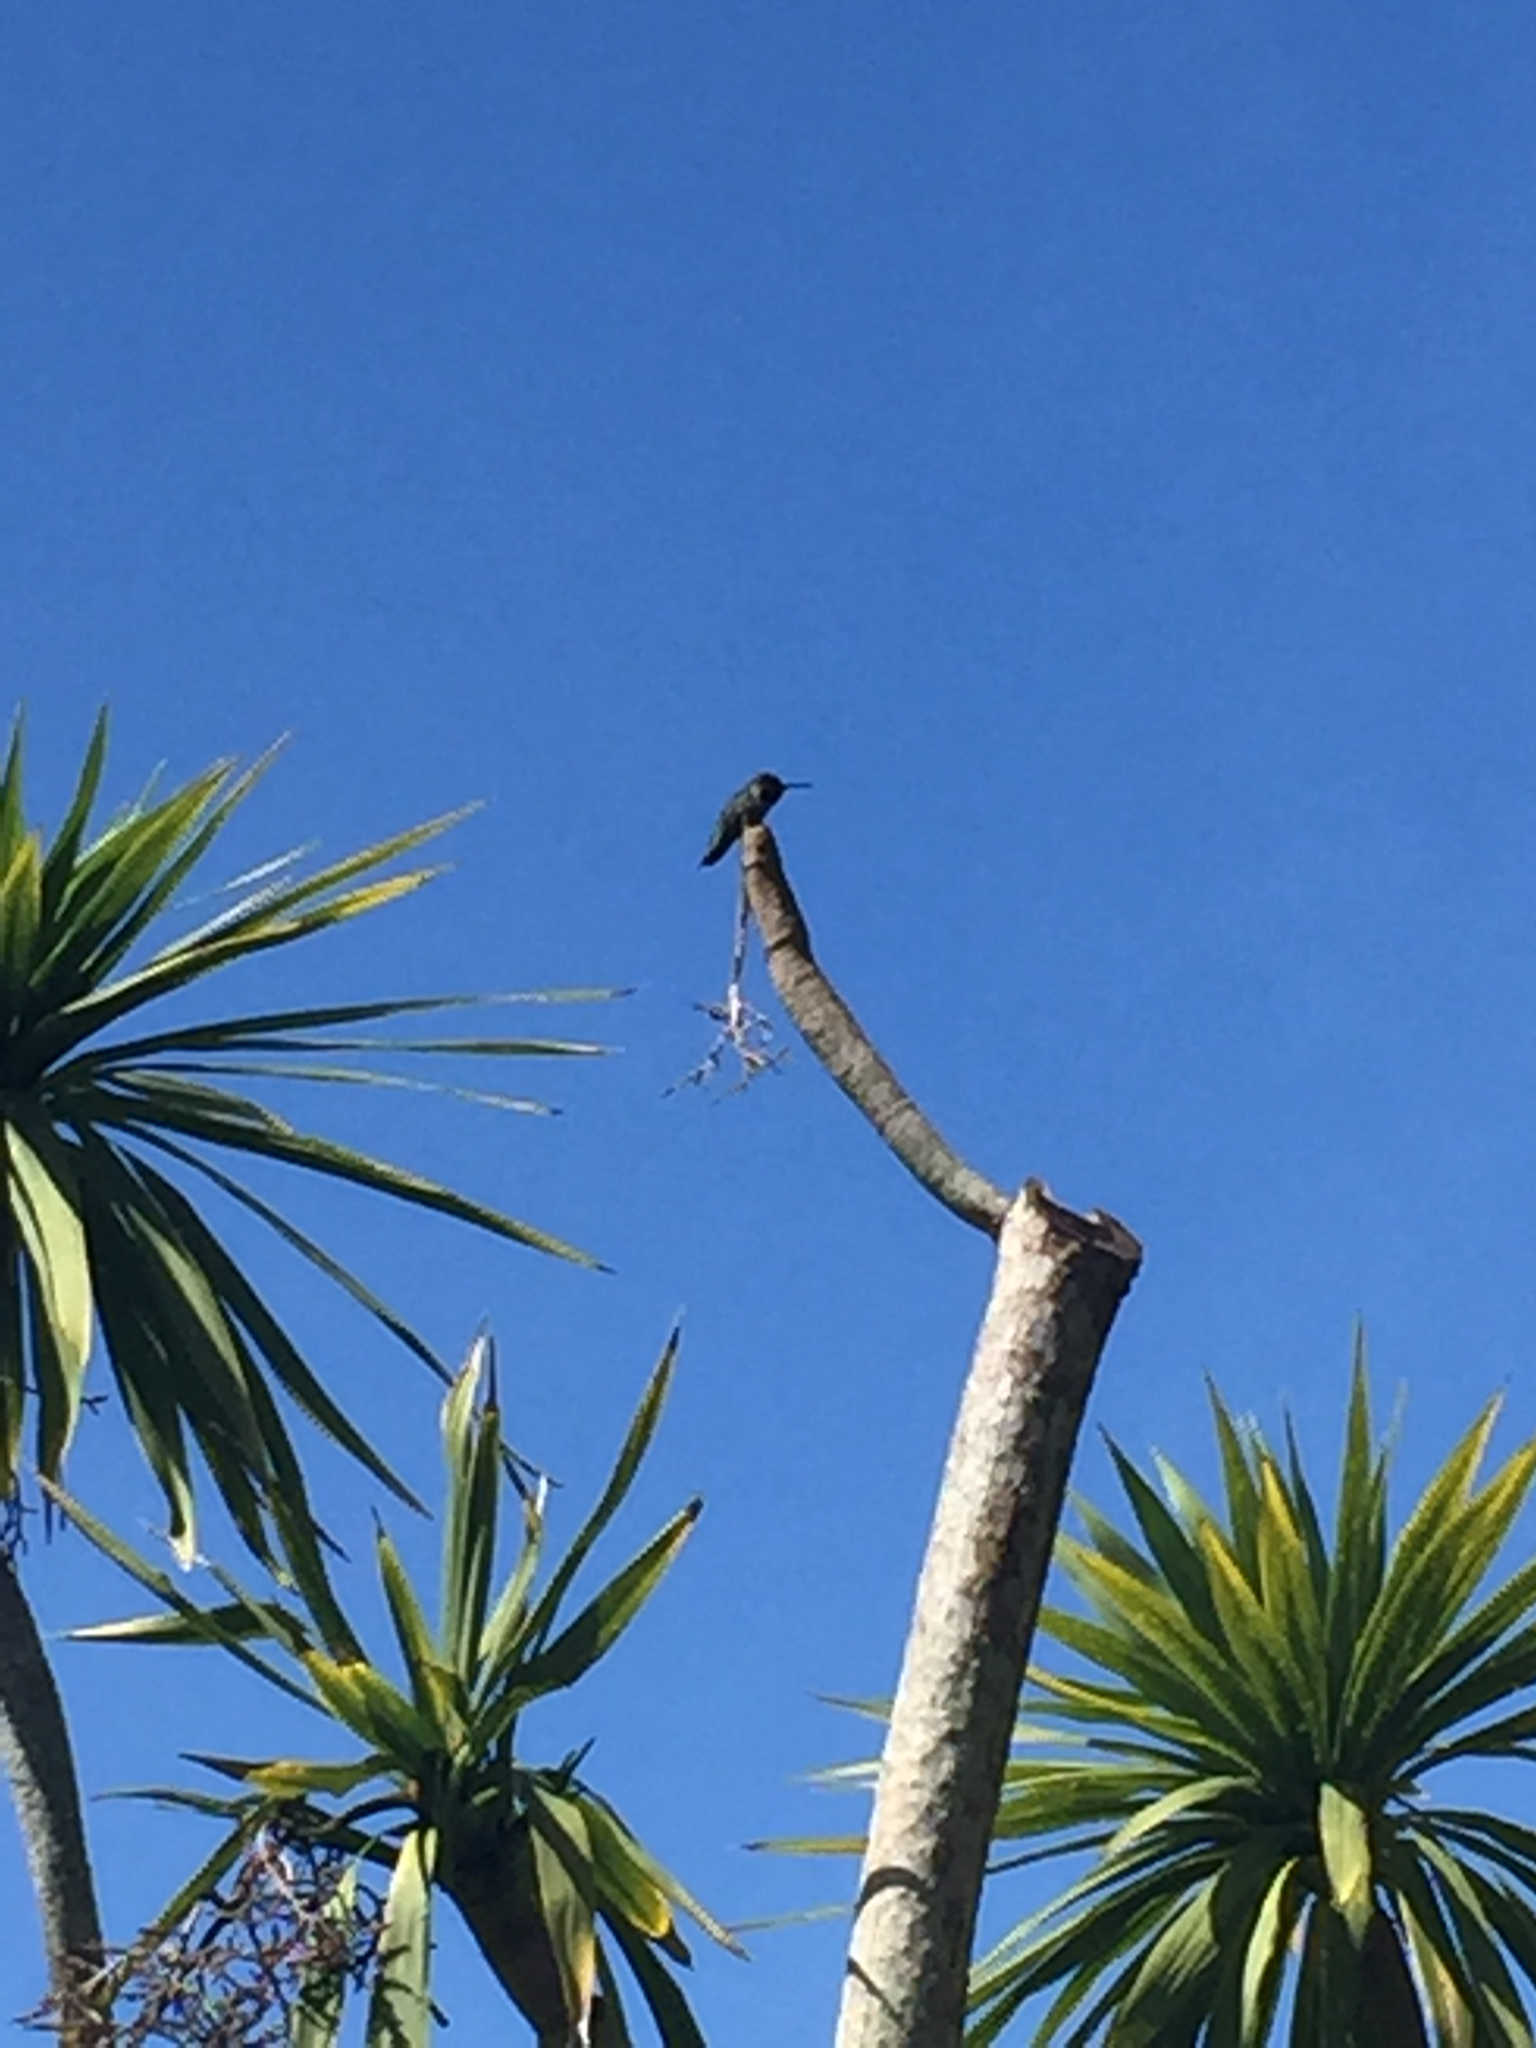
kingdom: Animalia
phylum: Chordata
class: Aves
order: Apodiformes
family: Trochilidae
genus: Calypte
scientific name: Calypte anna
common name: Anna's hummingbird
